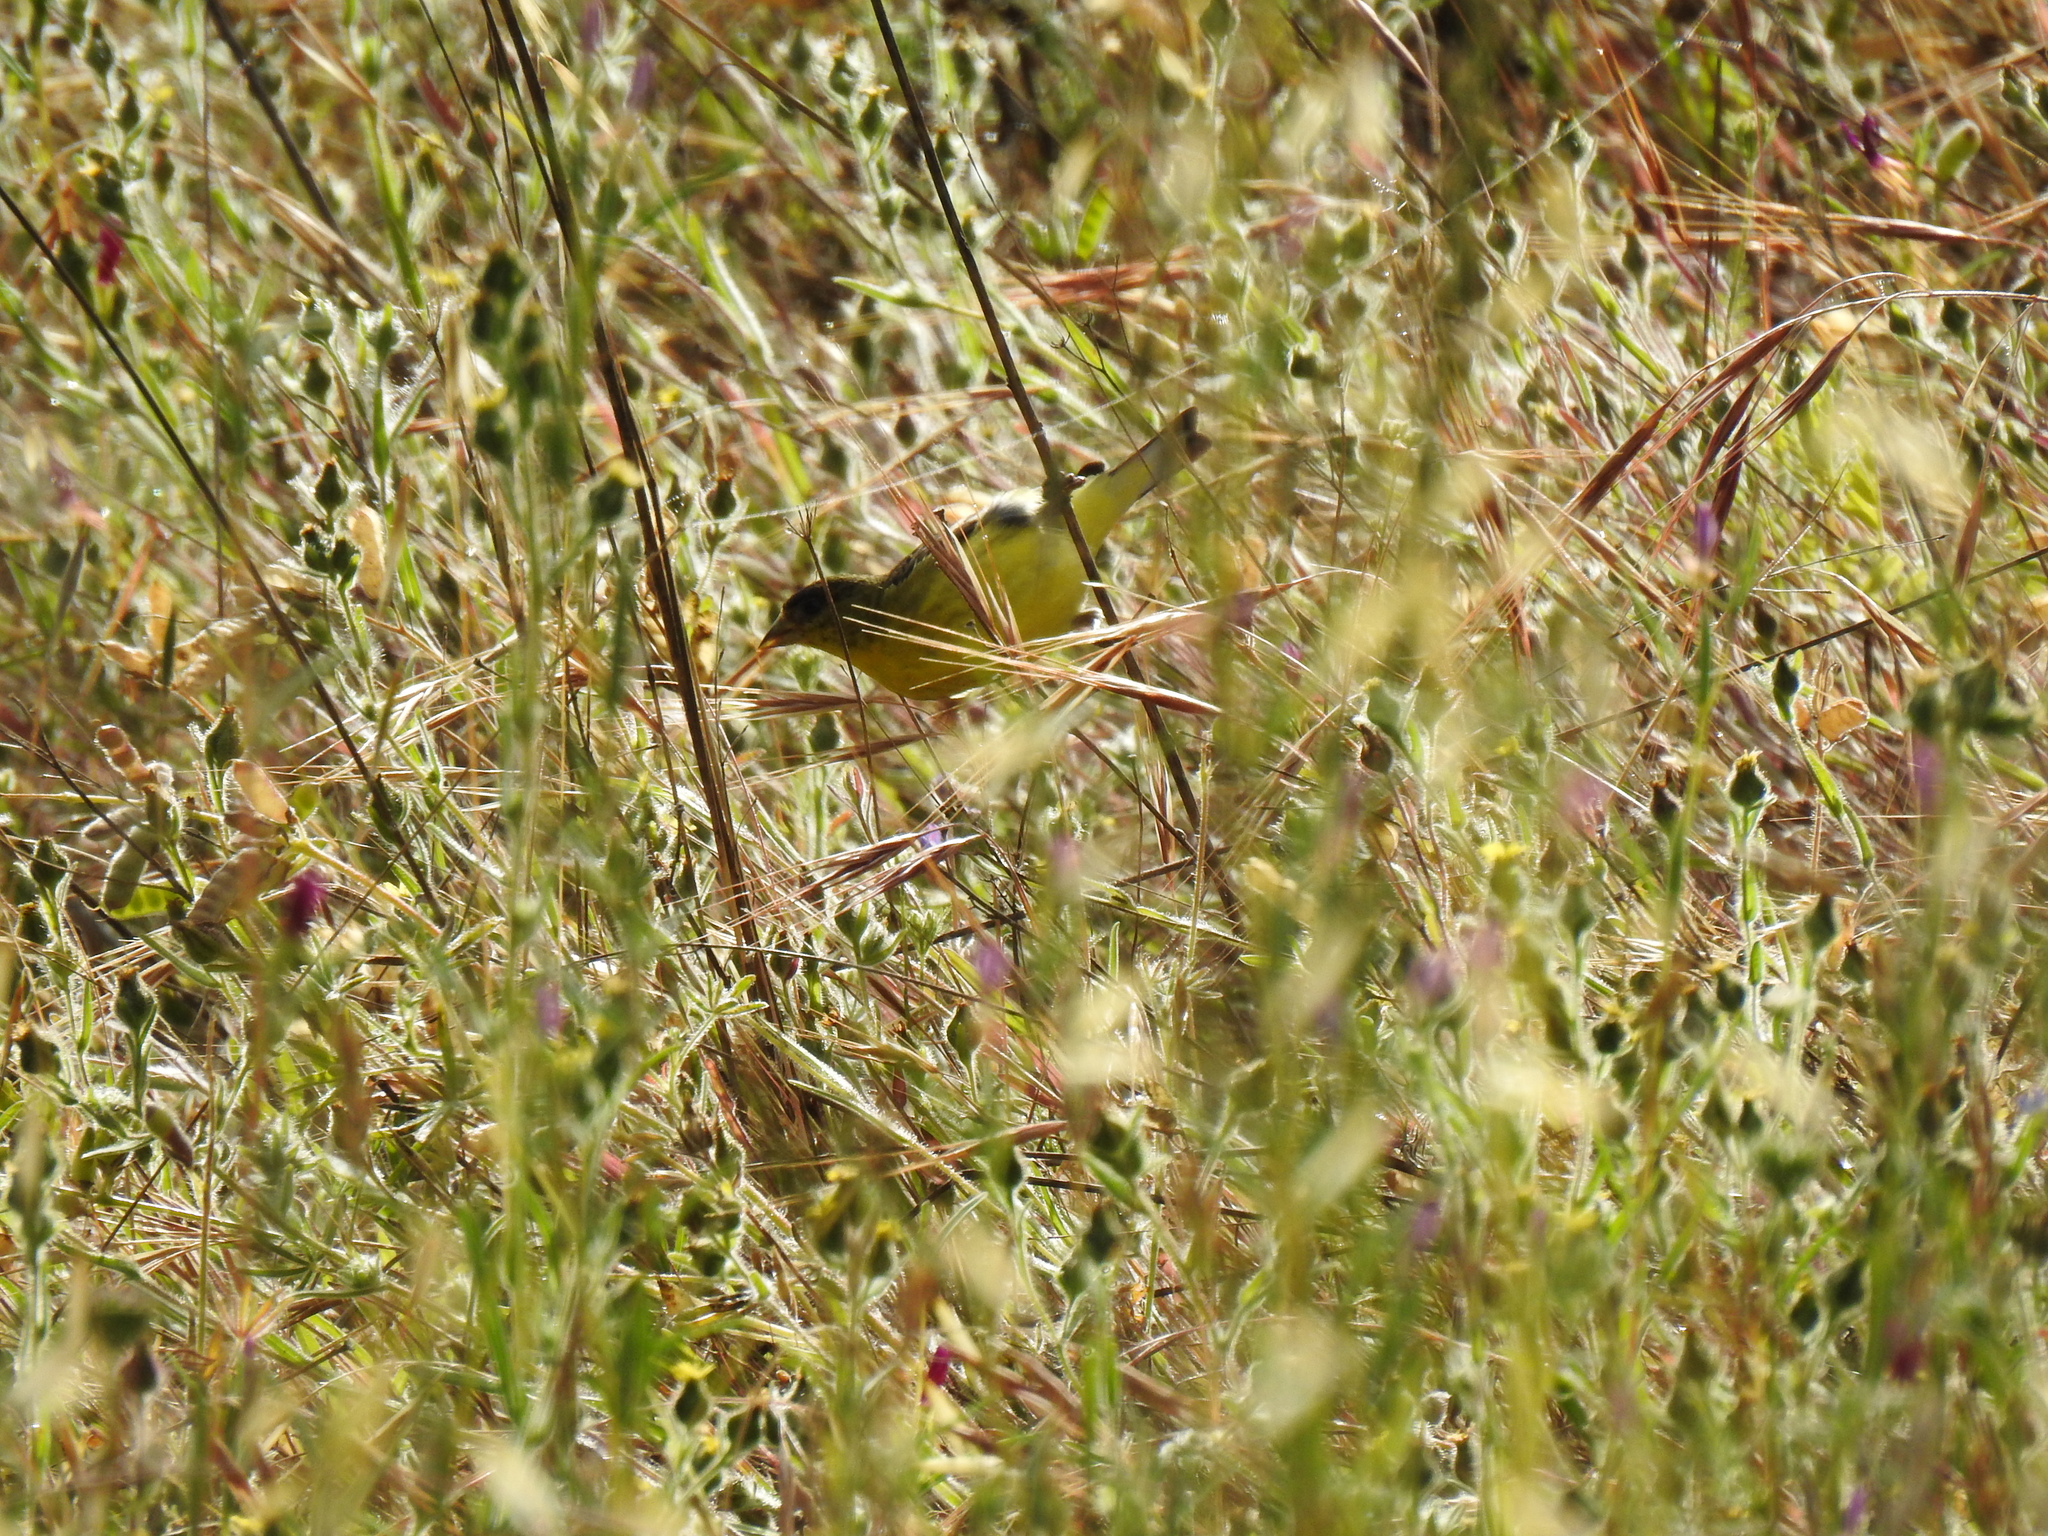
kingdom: Animalia
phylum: Chordata
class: Aves
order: Passeriformes
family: Fringillidae
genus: Spinus
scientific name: Spinus psaltria
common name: Lesser goldfinch
